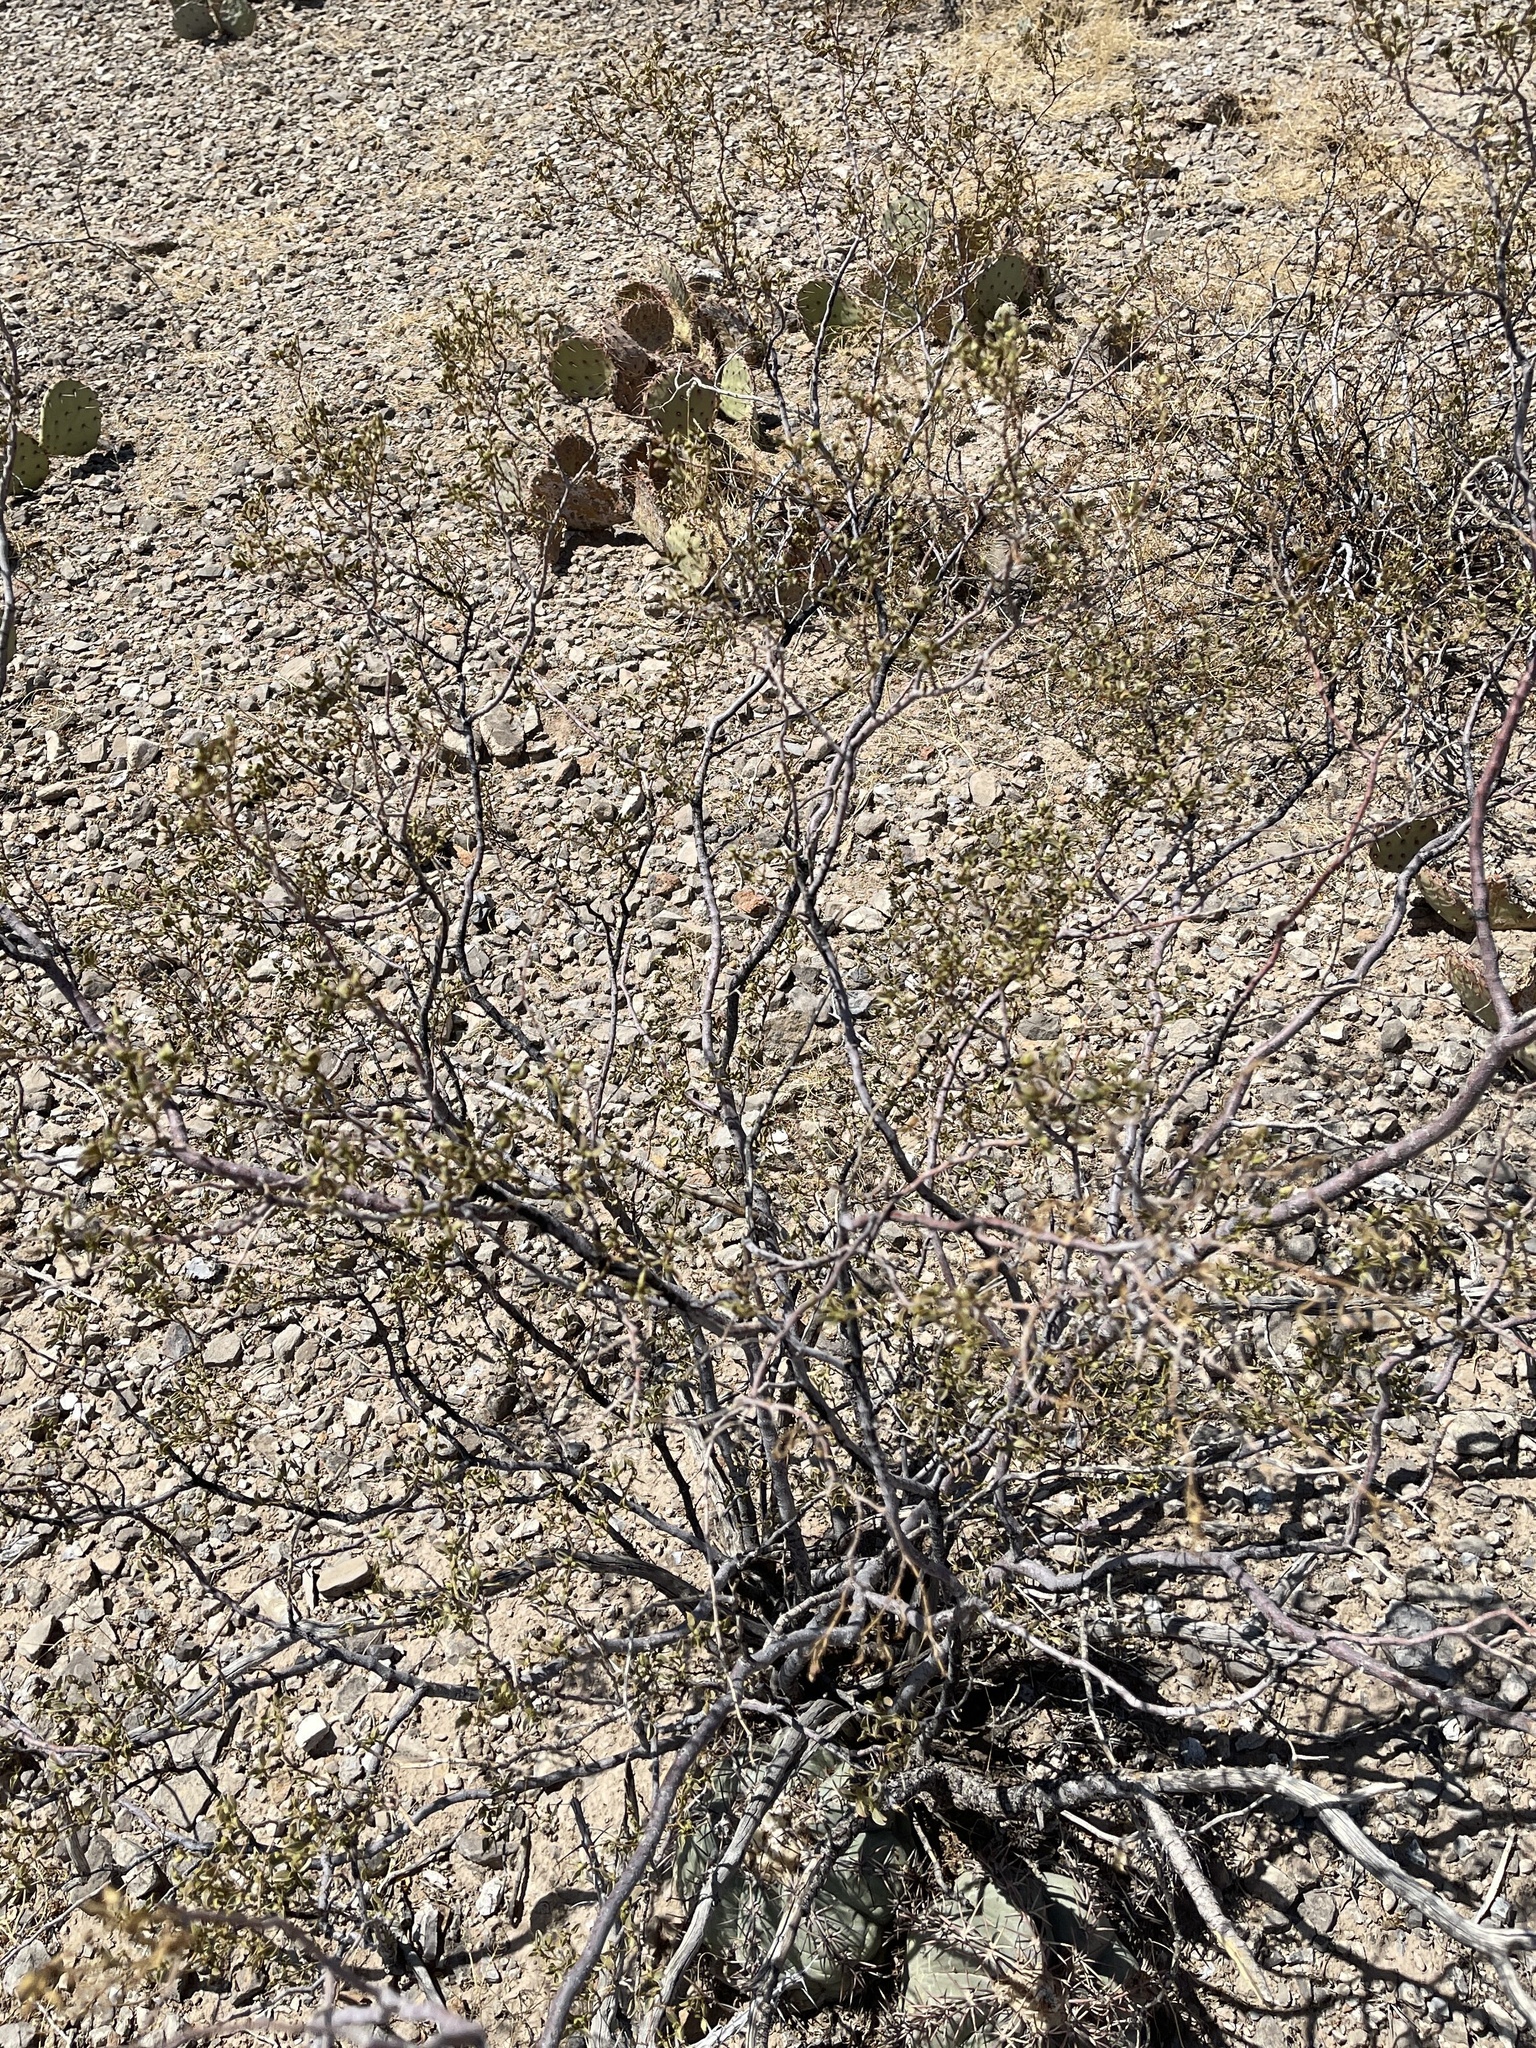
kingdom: Plantae
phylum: Tracheophyta
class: Magnoliopsida
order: Zygophyllales
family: Zygophyllaceae
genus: Larrea
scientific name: Larrea tridentata
